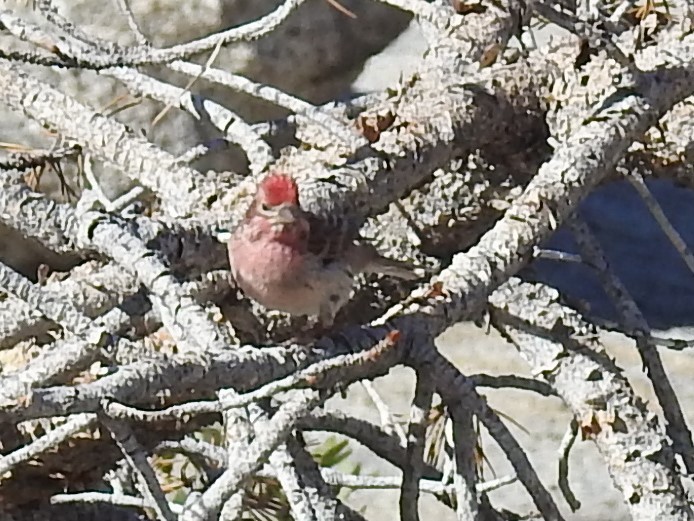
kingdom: Animalia
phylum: Chordata
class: Aves
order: Passeriformes
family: Fringillidae
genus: Haemorhous
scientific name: Haemorhous cassinii
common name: Cassin's finch
